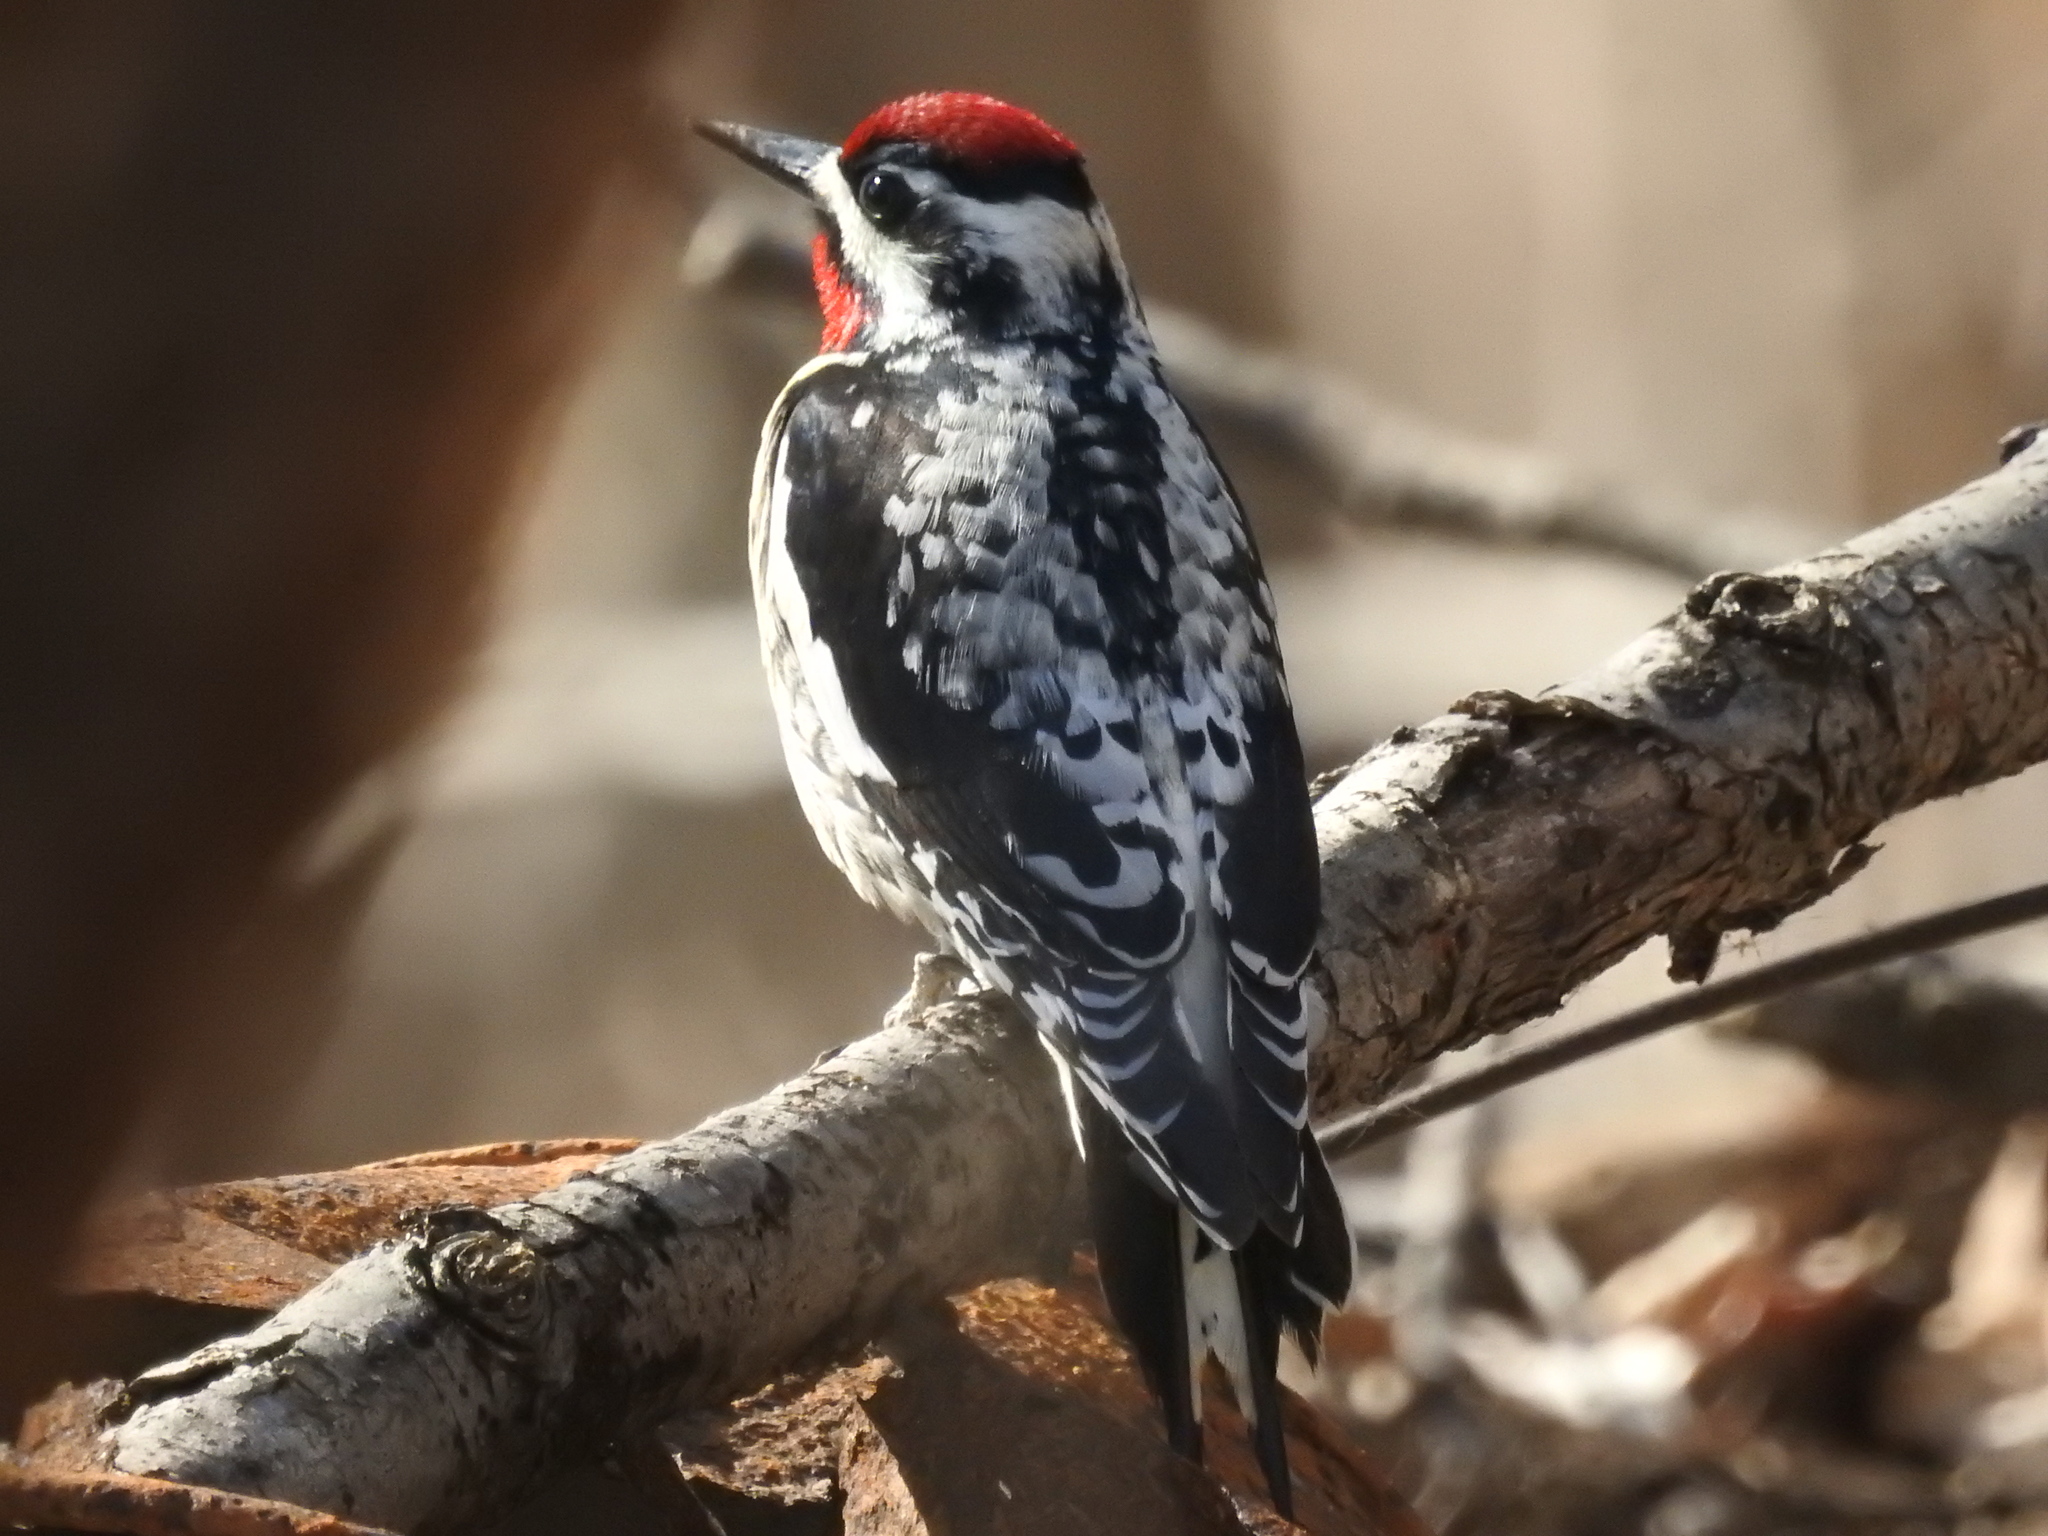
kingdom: Animalia
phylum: Chordata
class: Aves
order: Piciformes
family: Picidae
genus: Sphyrapicus
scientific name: Sphyrapicus varius
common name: Yellow-bellied sapsucker
